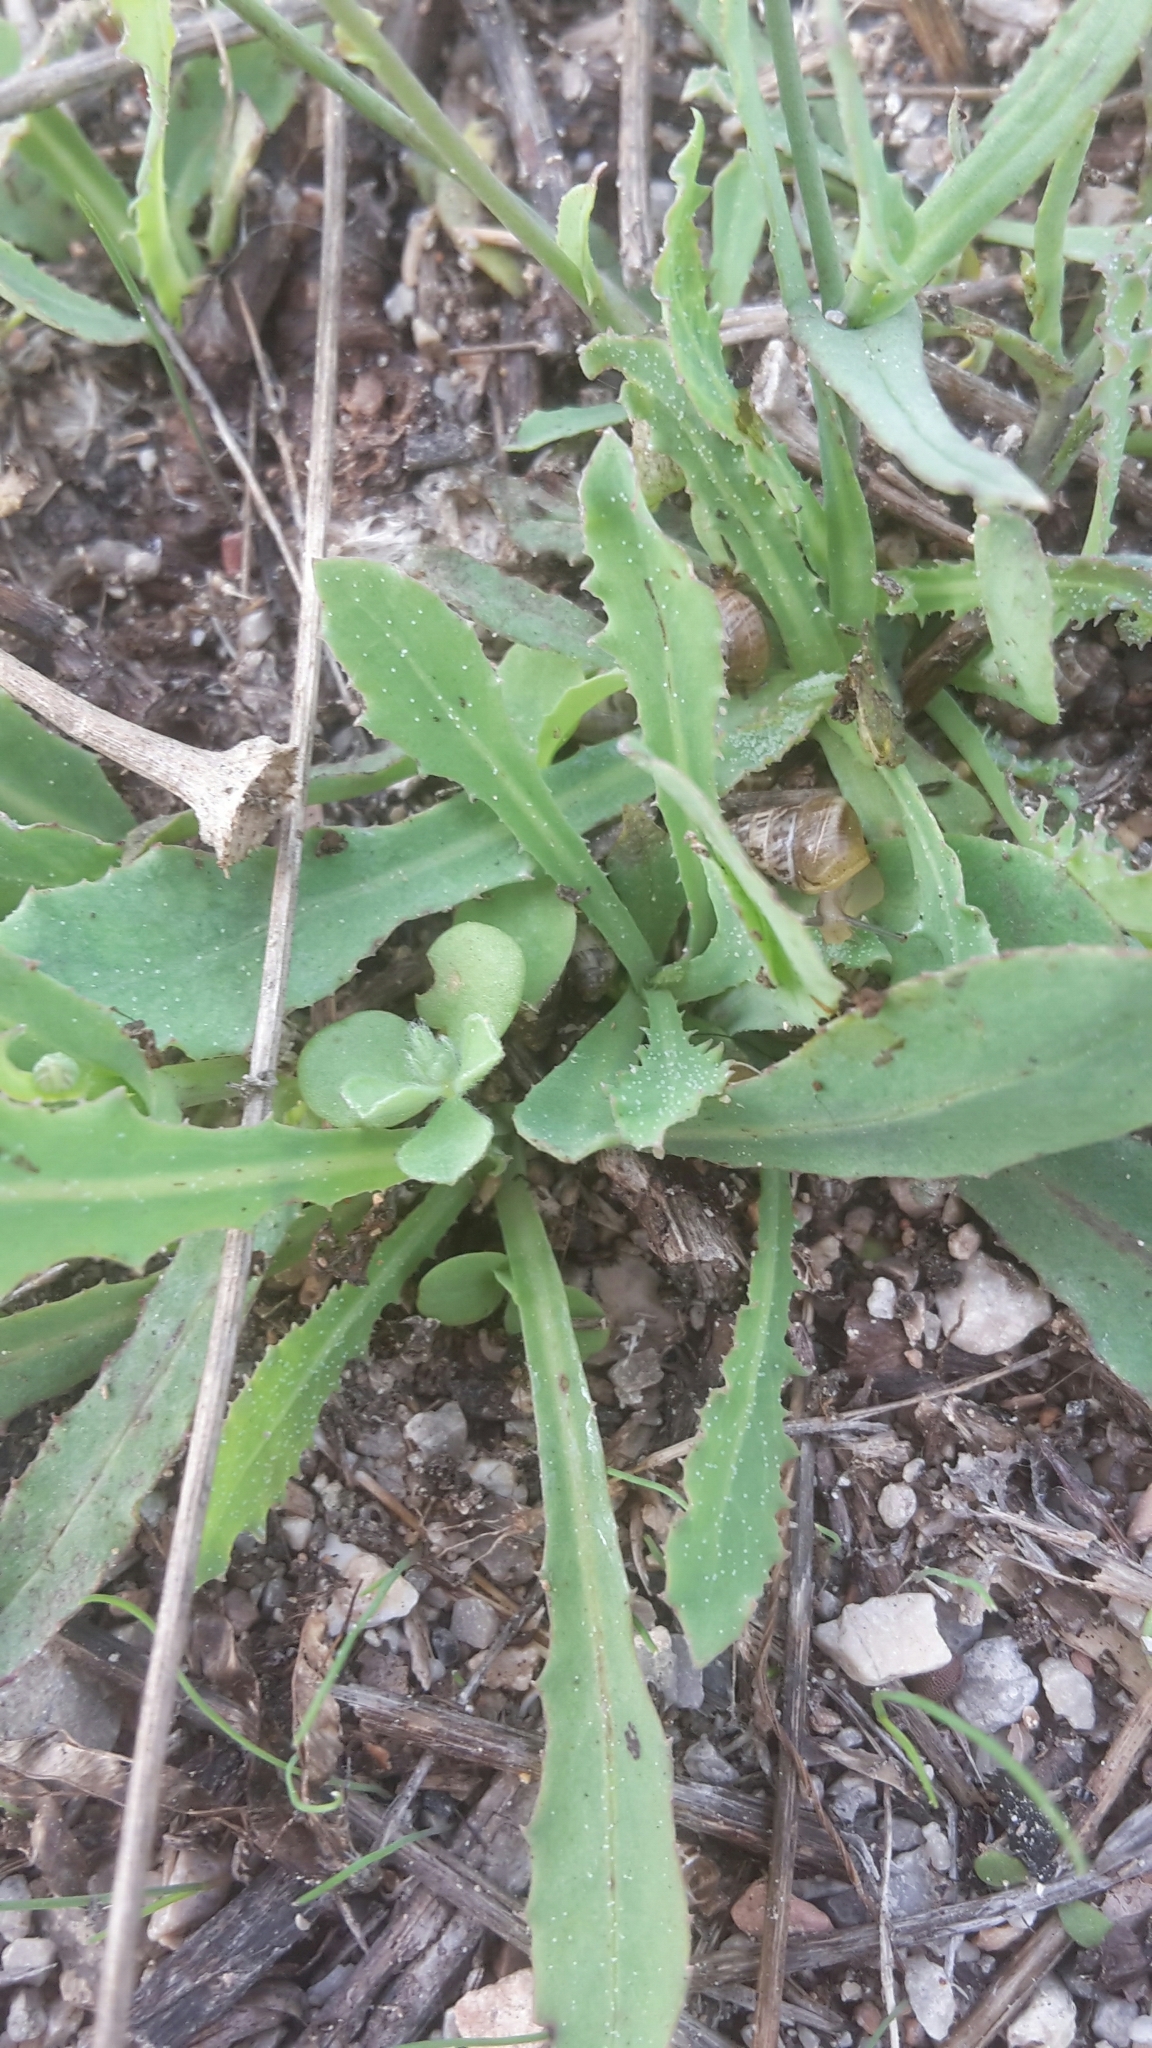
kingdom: Plantae
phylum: Tracheophyta
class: Magnoliopsida
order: Asterales
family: Asteraceae
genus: Reichardia
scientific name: Reichardia picroides
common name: Common brighteyes
